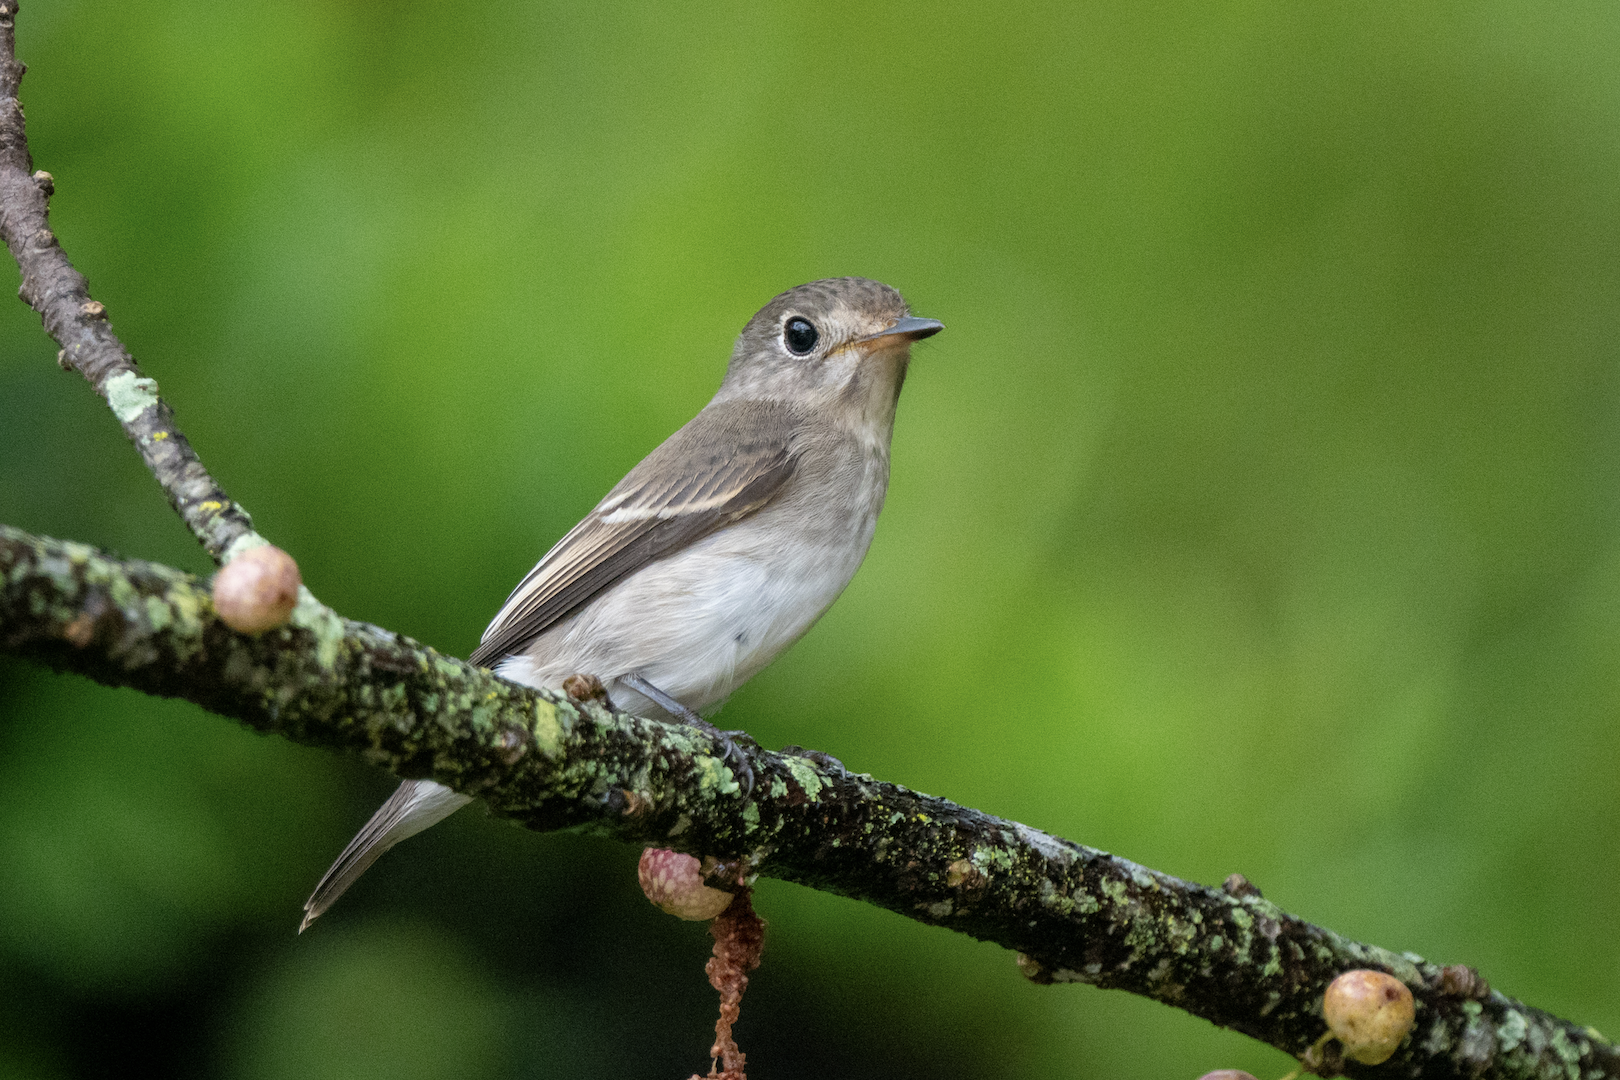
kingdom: Animalia
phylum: Chordata
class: Aves
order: Passeriformes
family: Muscicapidae
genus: Muscicapa
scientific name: Muscicapa latirostris
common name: Asian brown flycatcher
